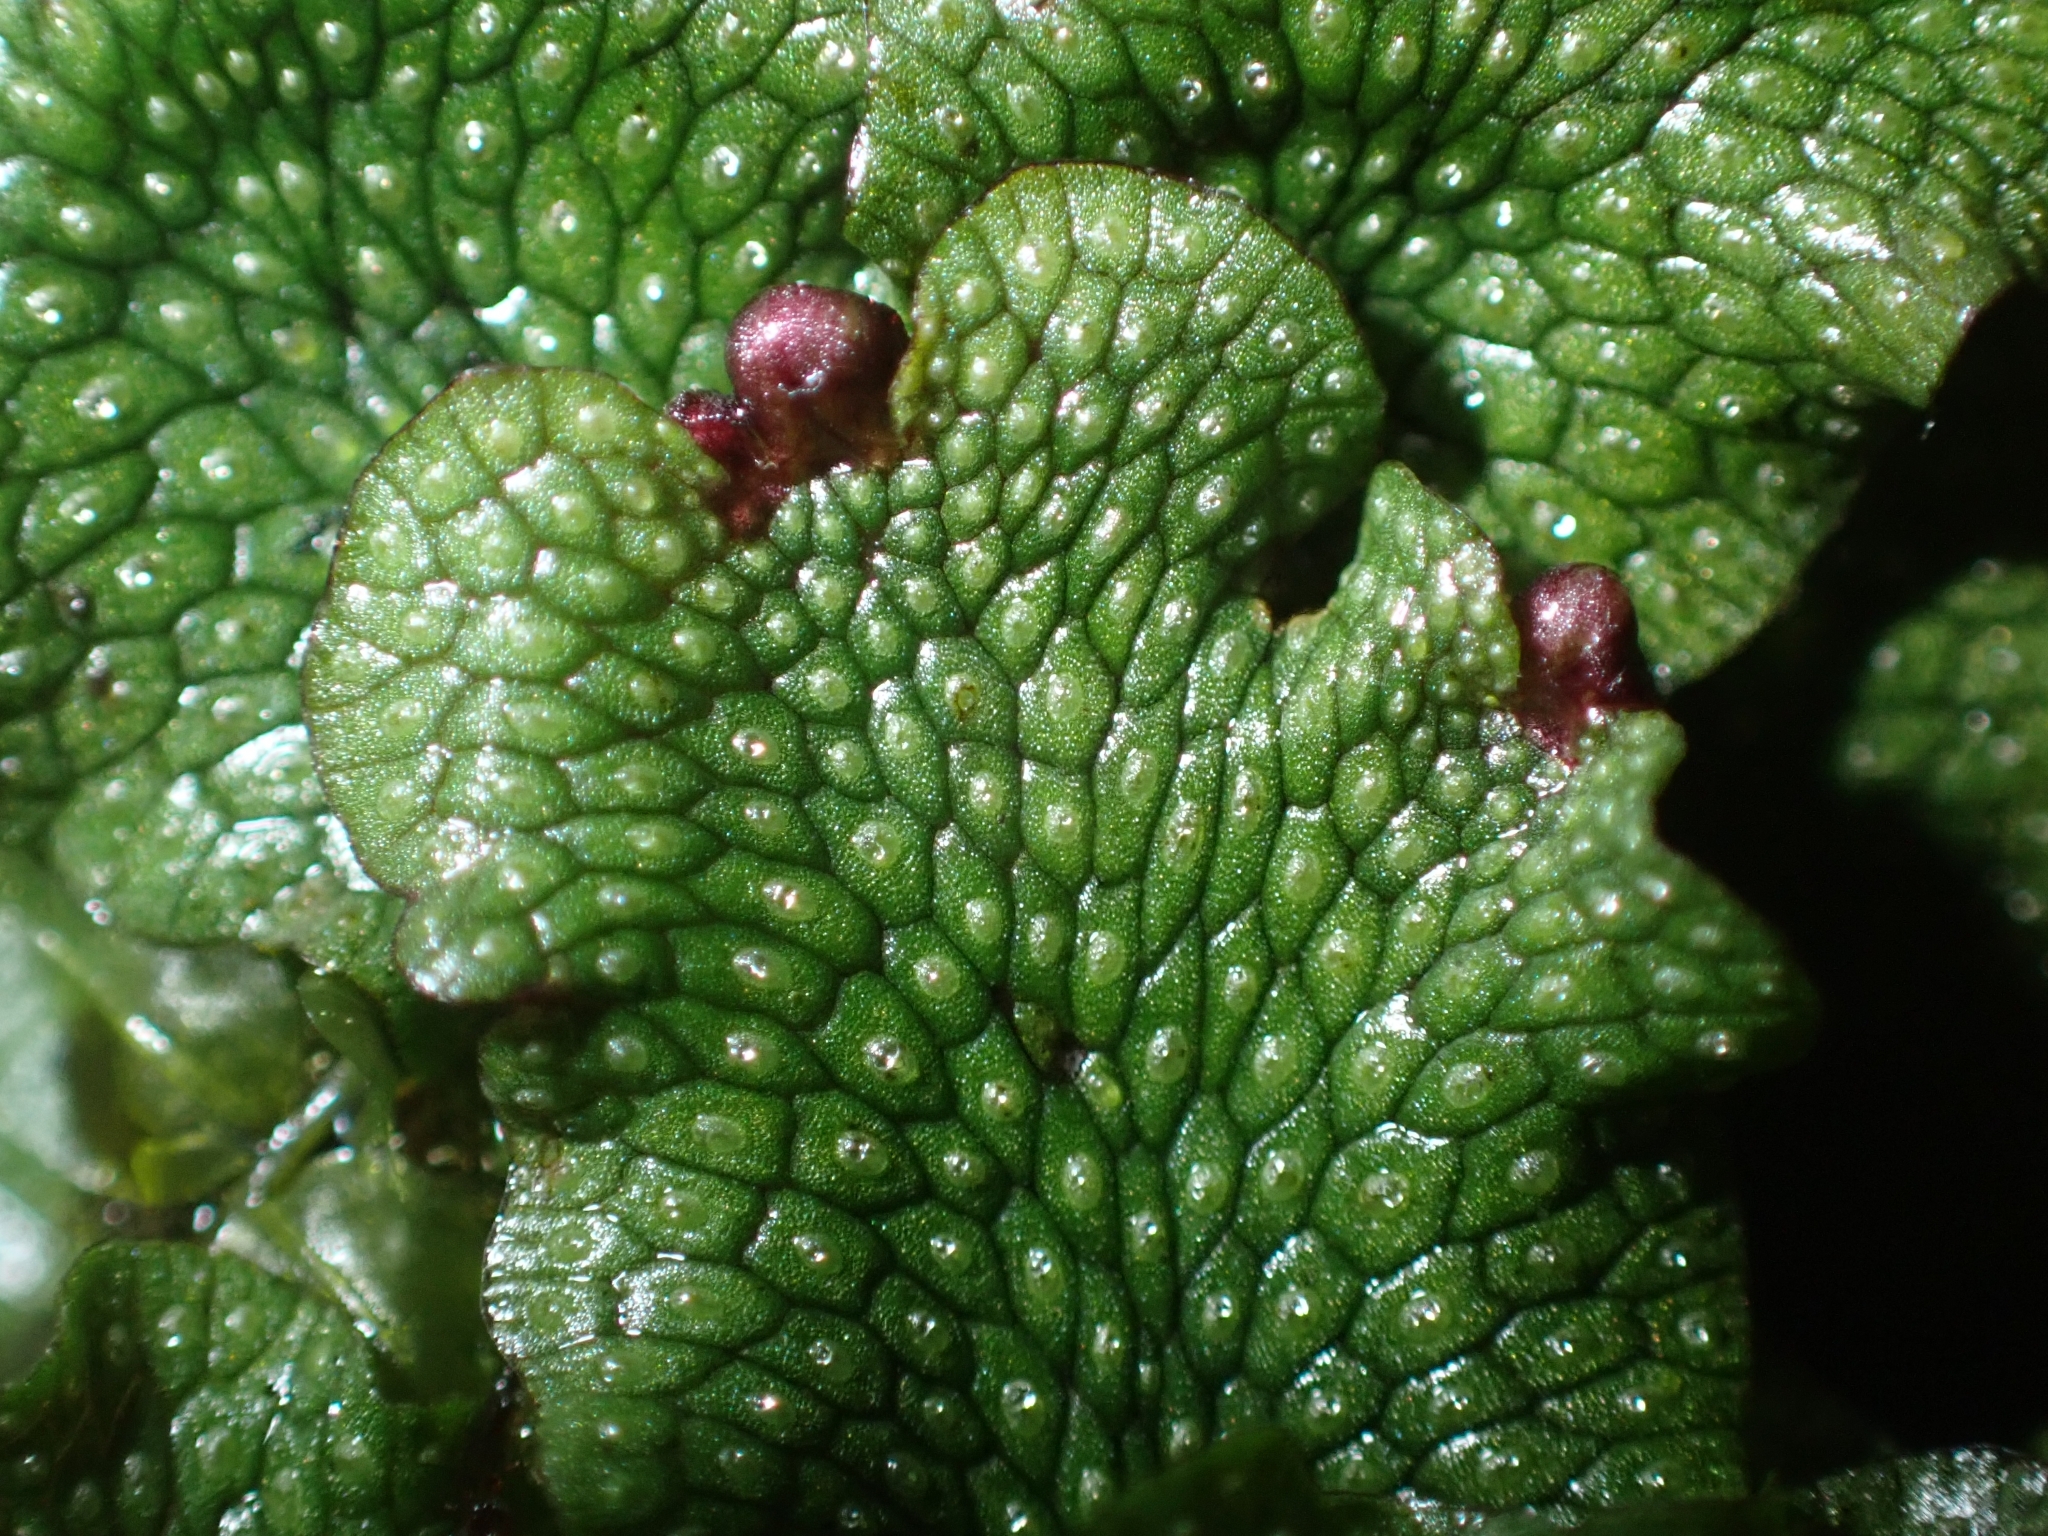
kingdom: Plantae
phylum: Marchantiophyta
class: Marchantiopsida
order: Marchantiales
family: Conocephalaceae
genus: Conocephalum
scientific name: Conocephalum salebrosum
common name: Cat-tongue liverwort
